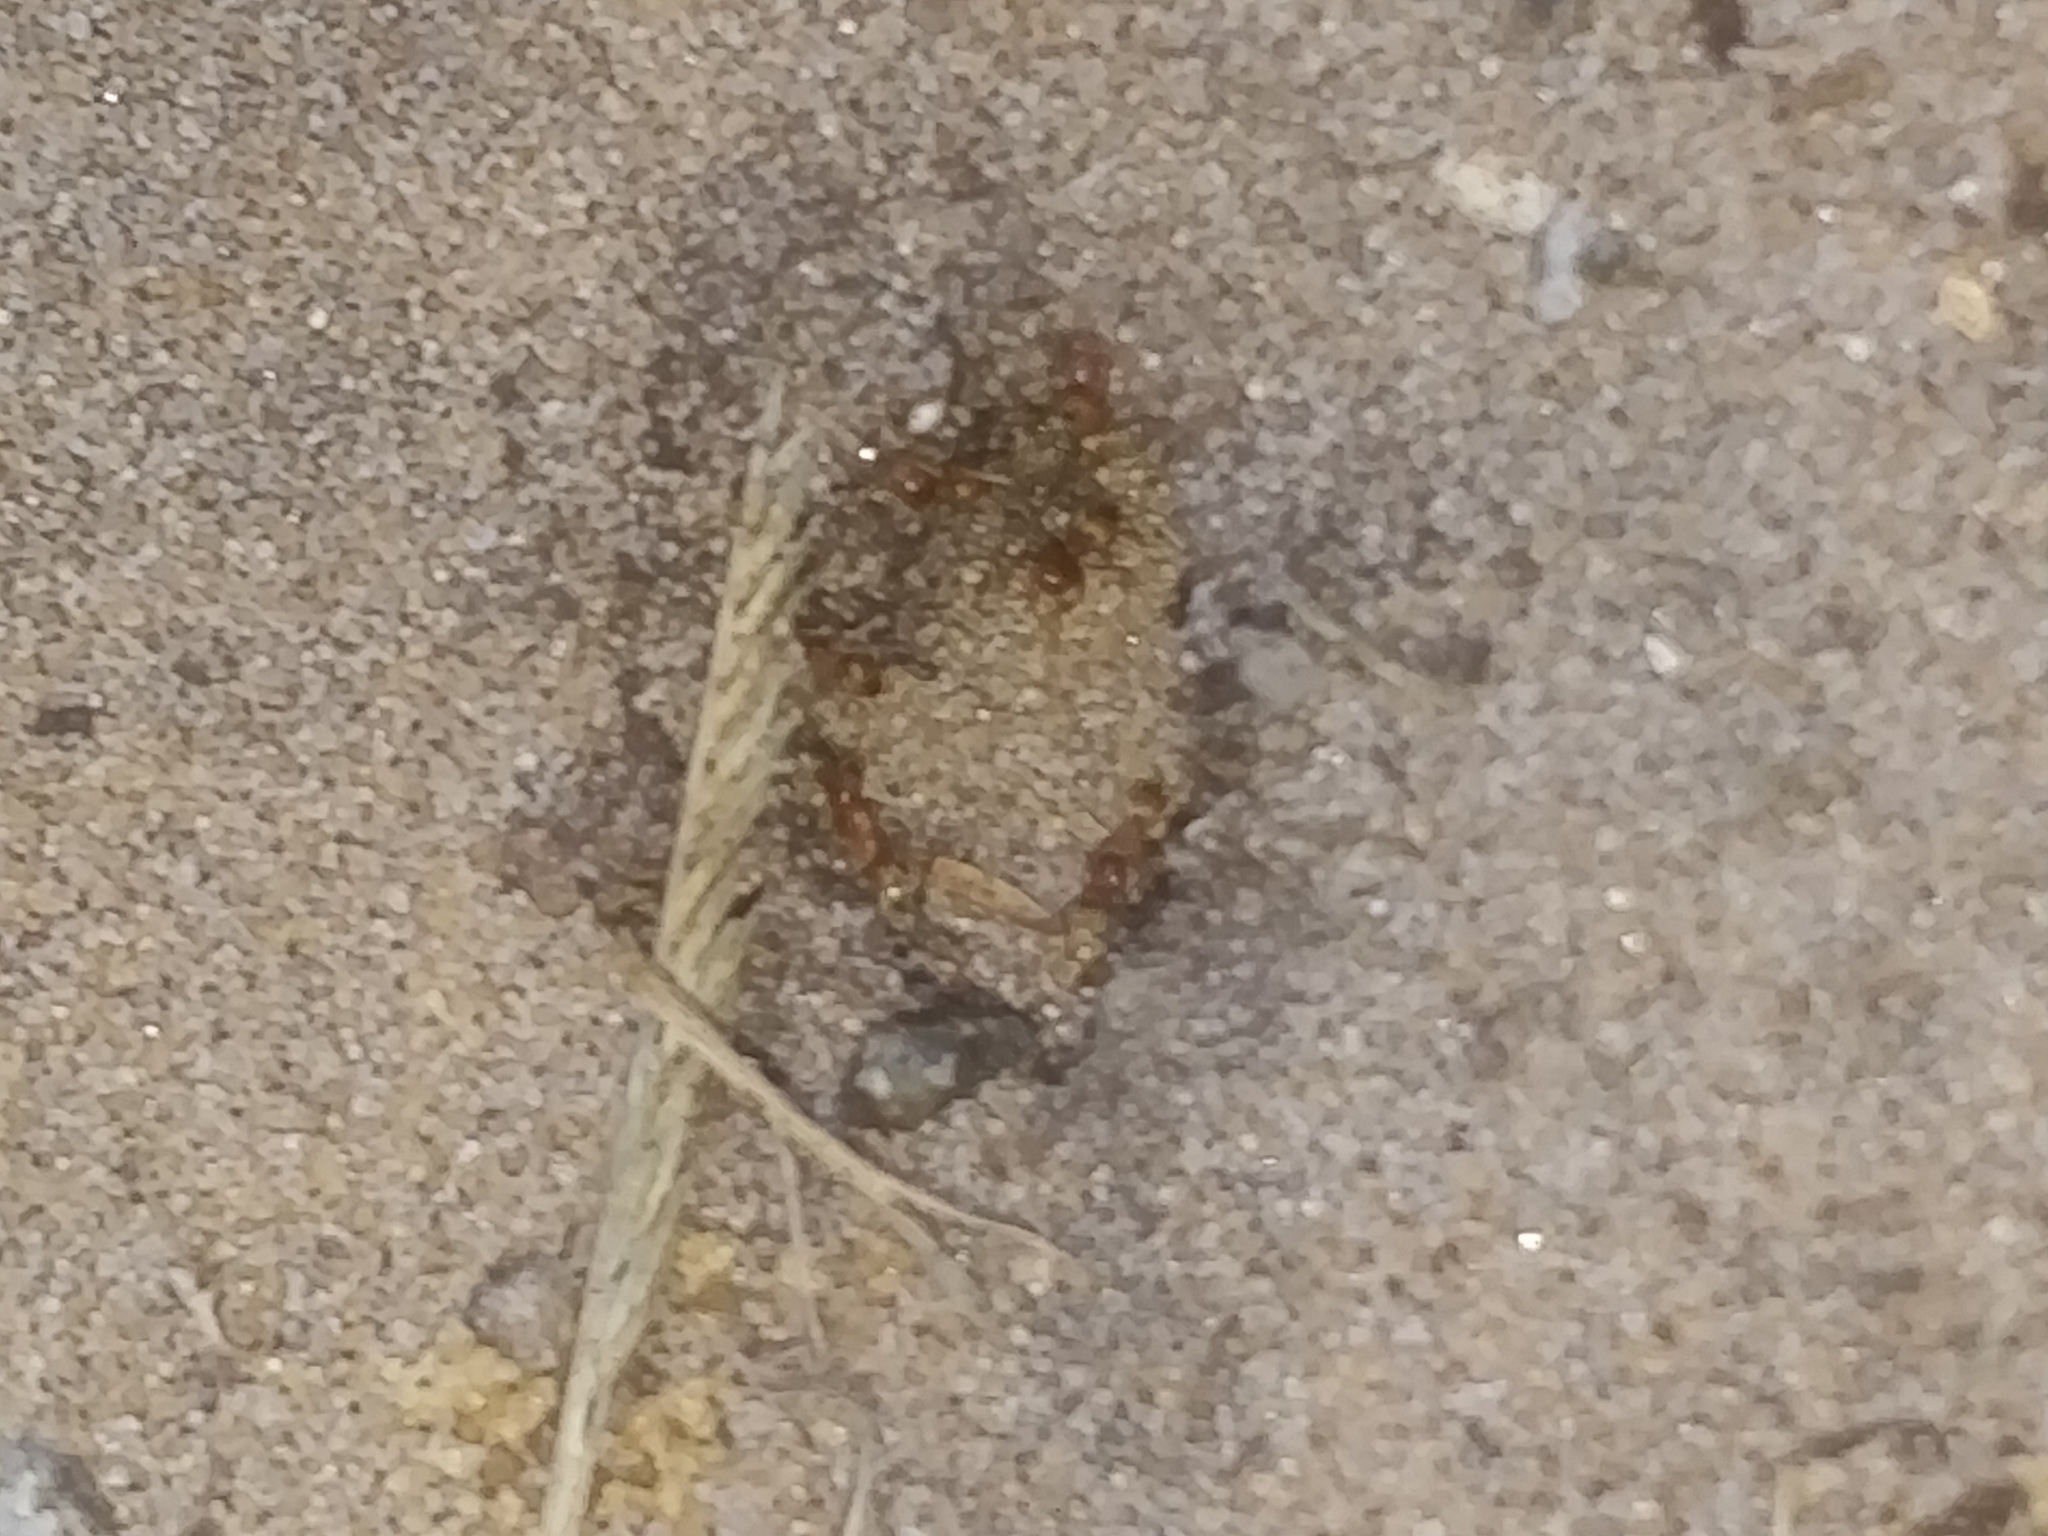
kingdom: Animalia
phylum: Arthropoda
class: Insecta
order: Hymenoptera
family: Formicidae
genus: Dorymyrmex
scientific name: Dorymyrmex bureni
